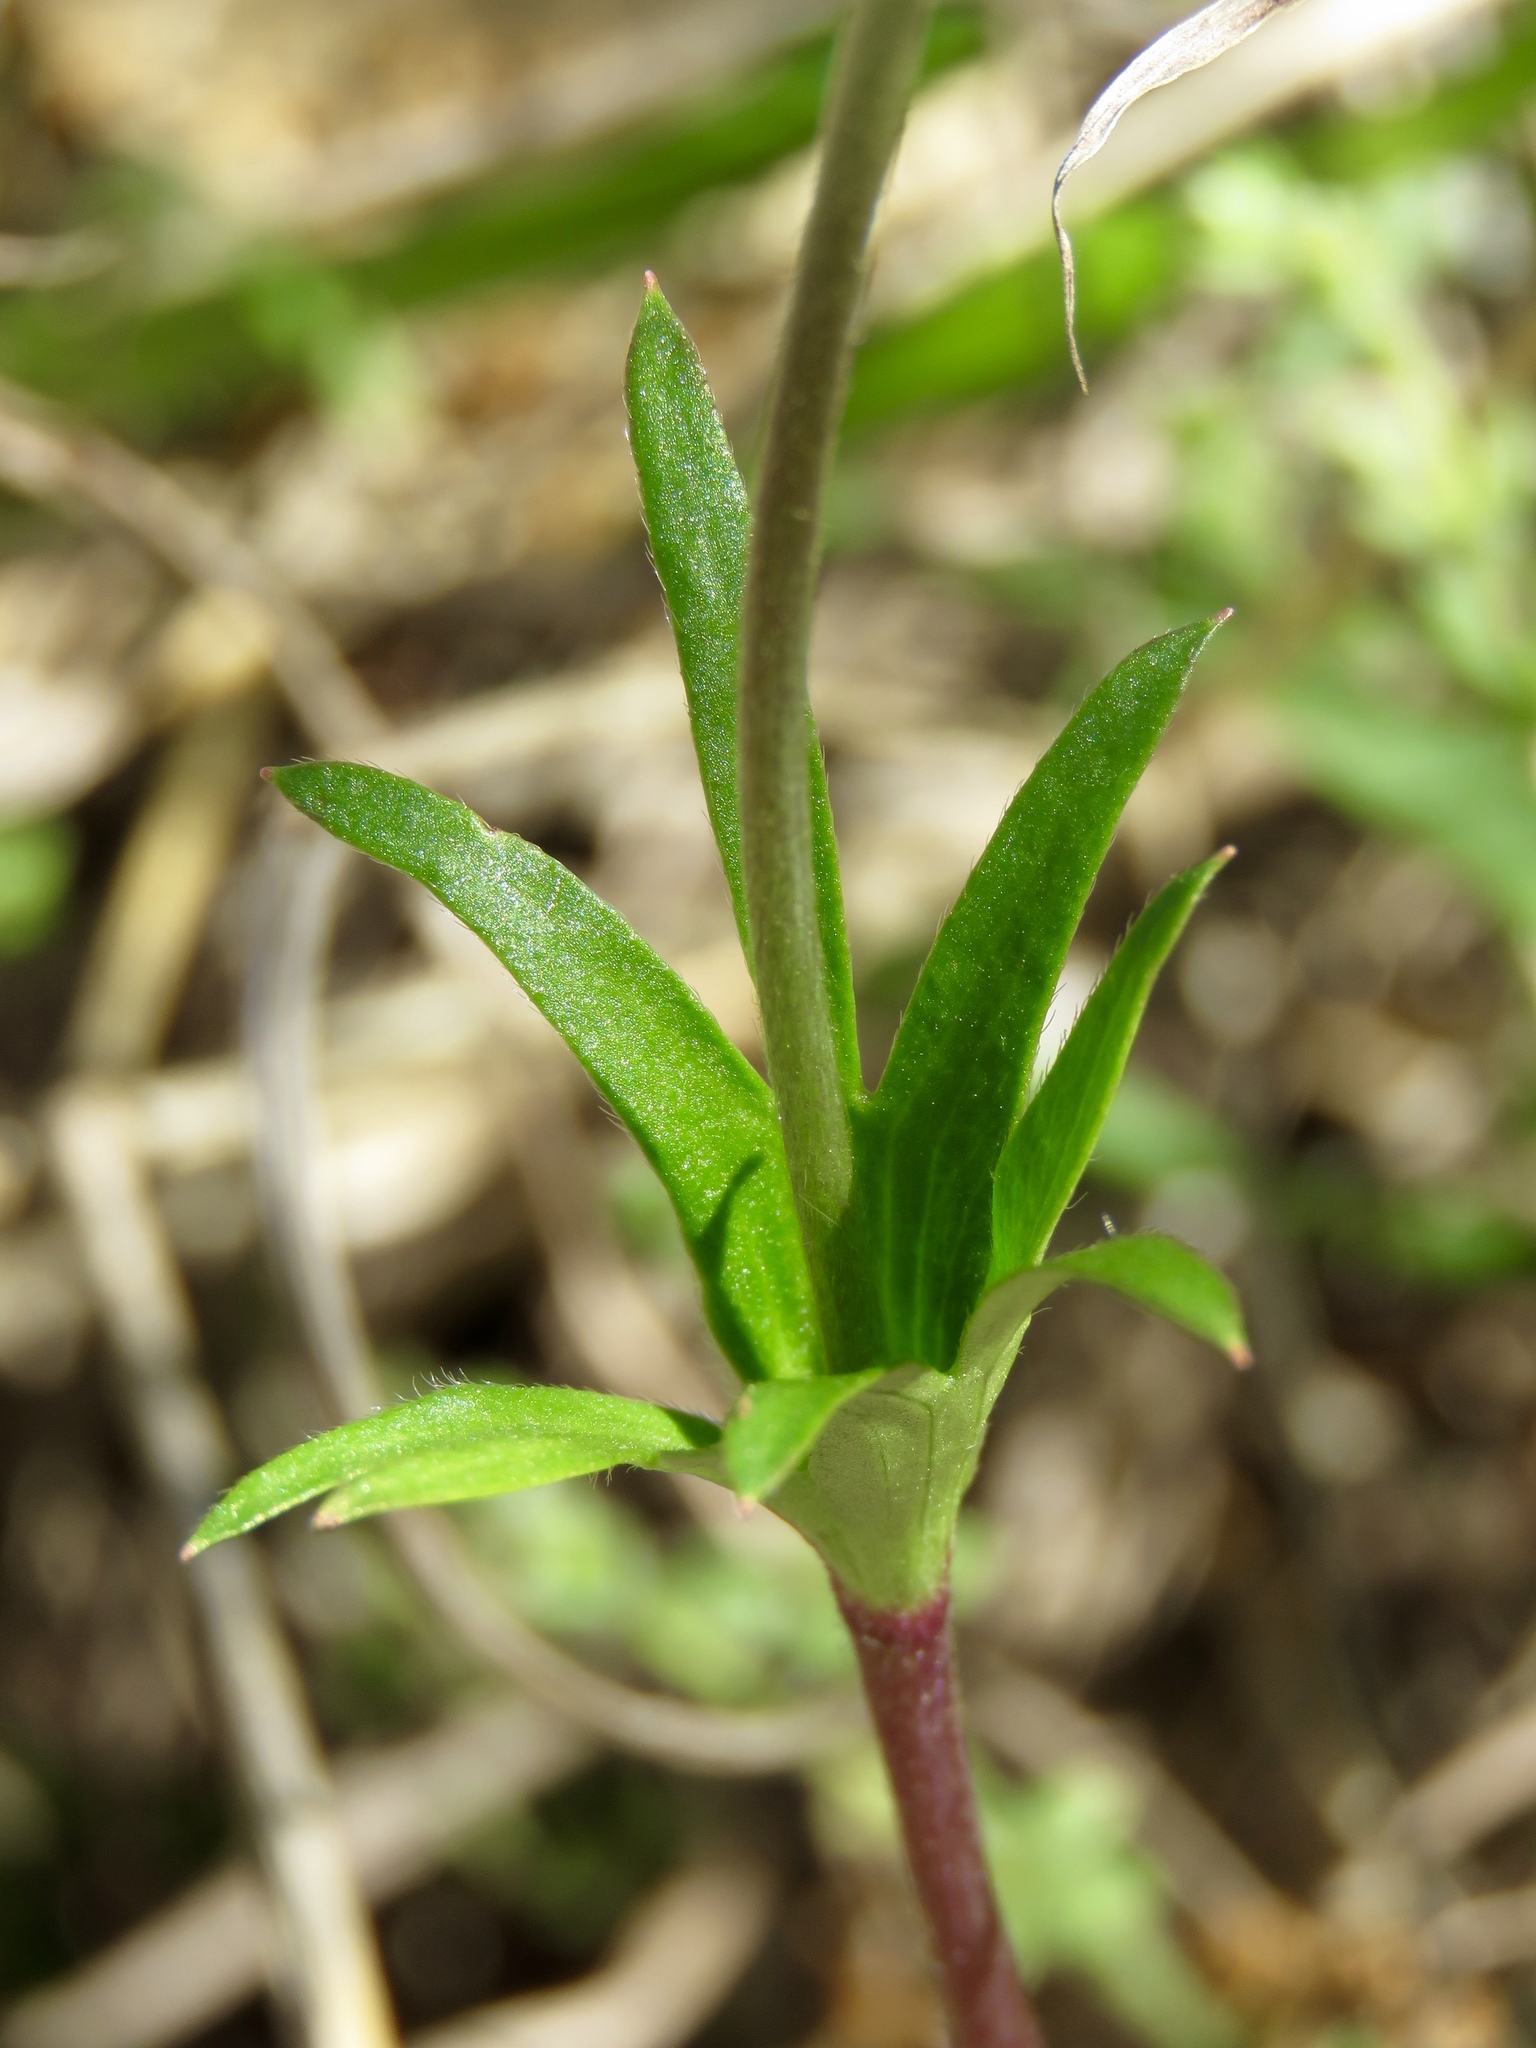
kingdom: Plantae
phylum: Tracheophyta
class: Magnoliopsida
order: Ranunculales
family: Ranunculaceae
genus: Anemone
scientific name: Anemone berlandieri
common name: Ten-petal anemone
